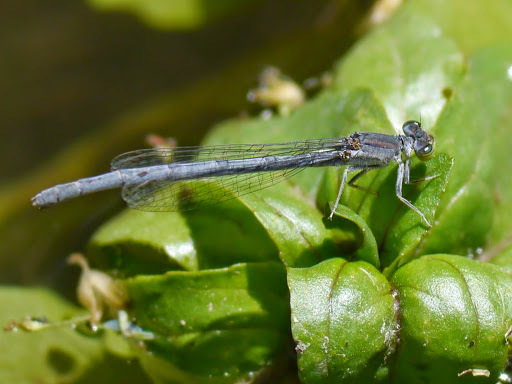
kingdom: Animalia
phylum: Arthropoda
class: Insecta
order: Odonata
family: Coenagrionidae
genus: Ischnura
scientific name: Ischnura demorsa
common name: Mexican forktail
